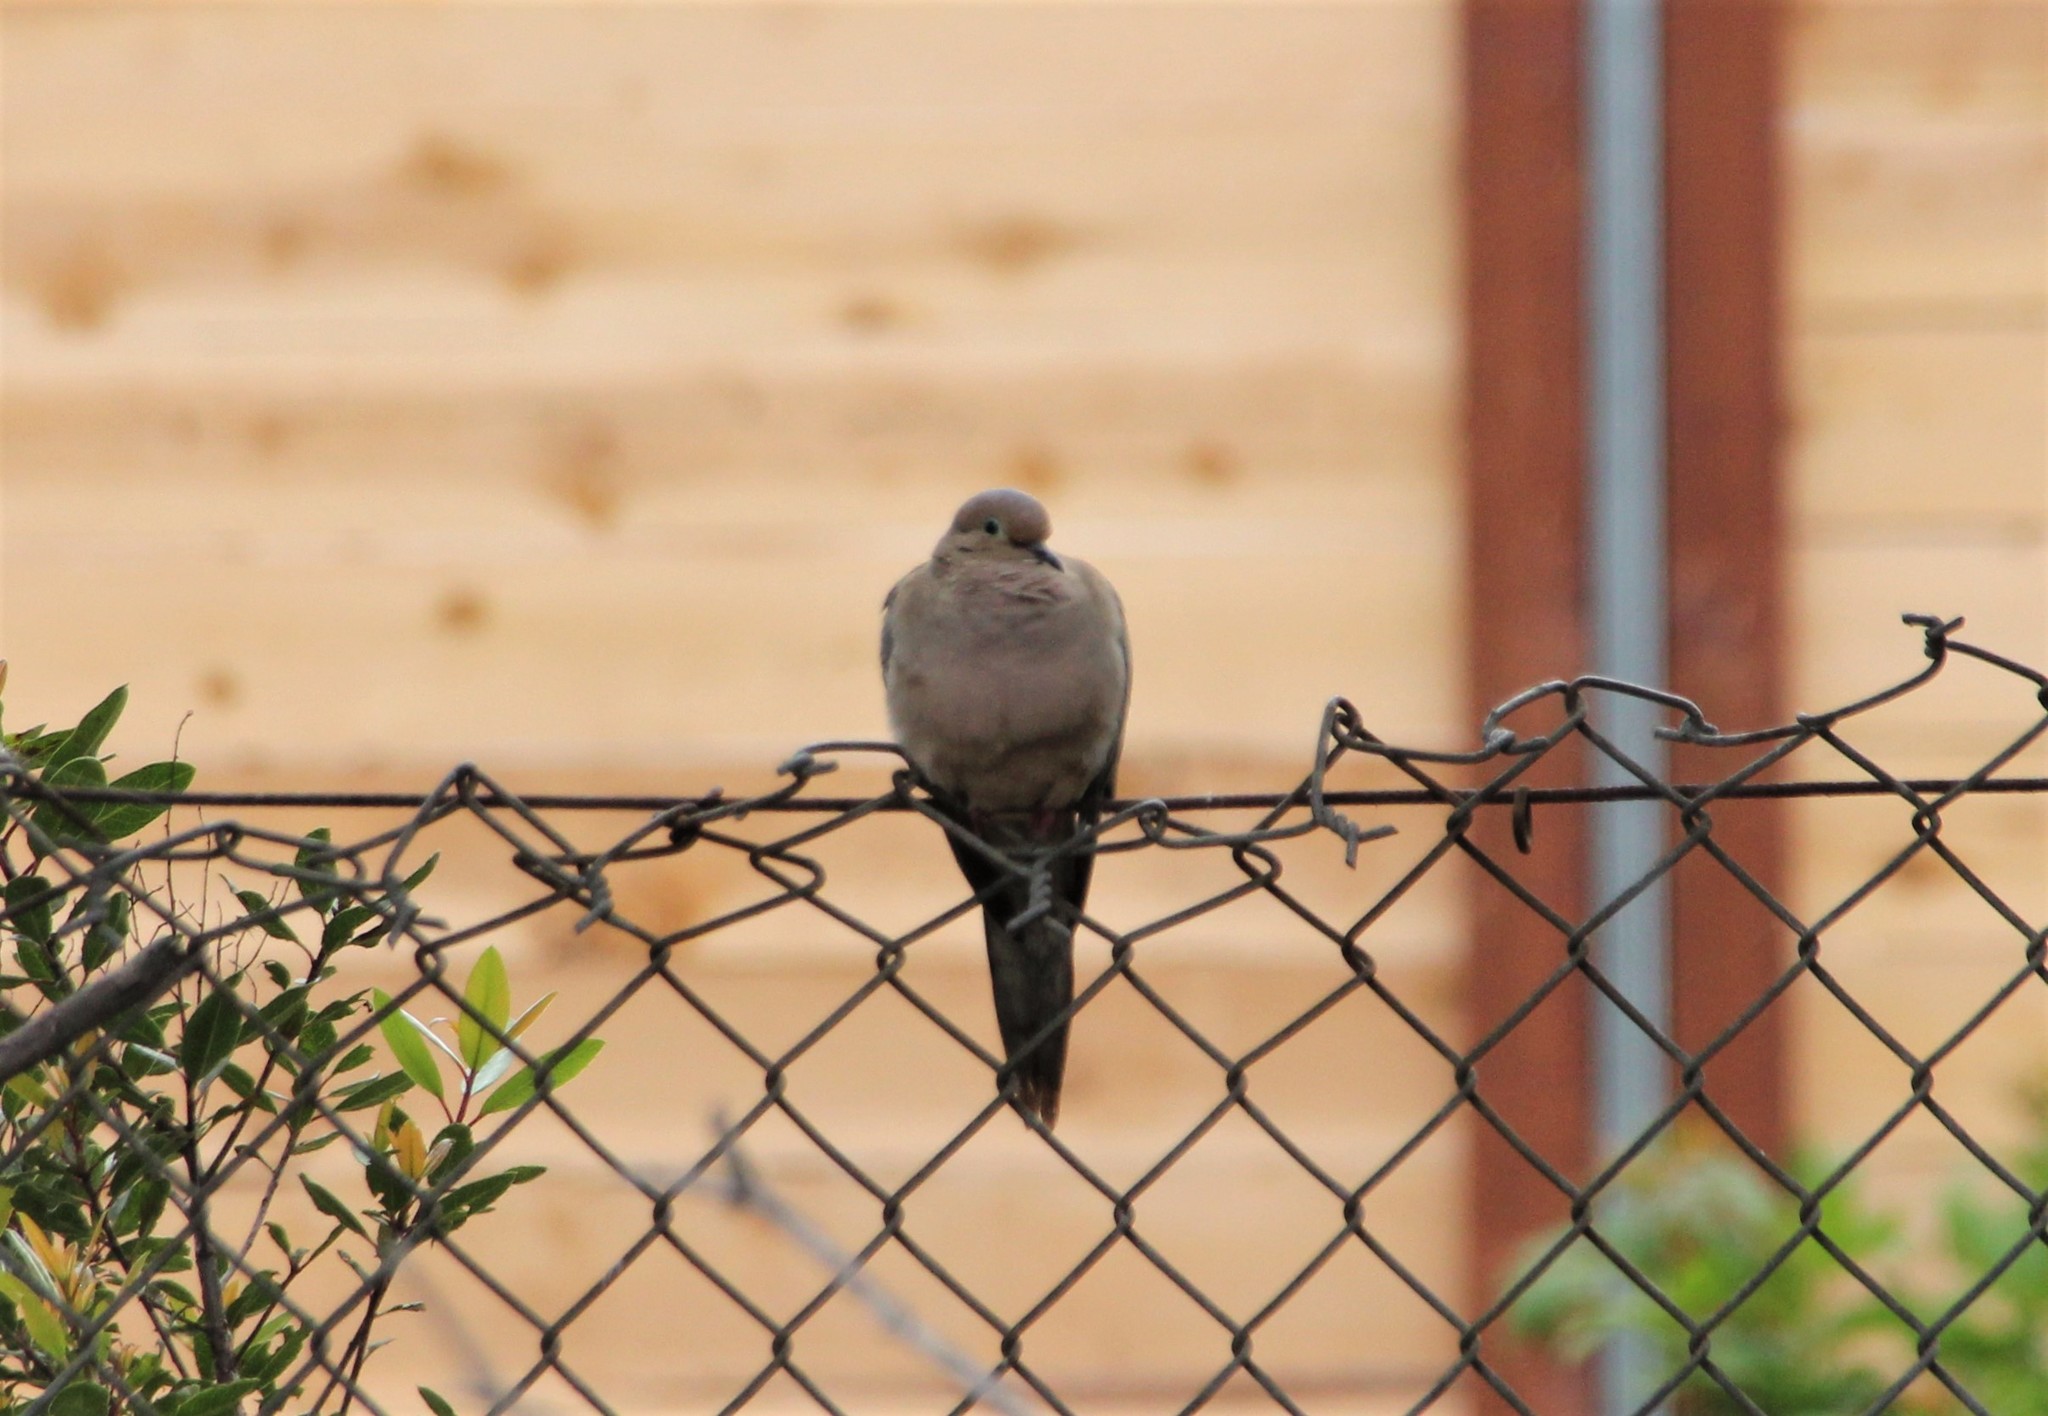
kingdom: Animalia
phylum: Chordata
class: Aves
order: Columbiformes
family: Columbidae
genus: Zenaida
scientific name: Zenaida macroura
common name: Mourning dove
